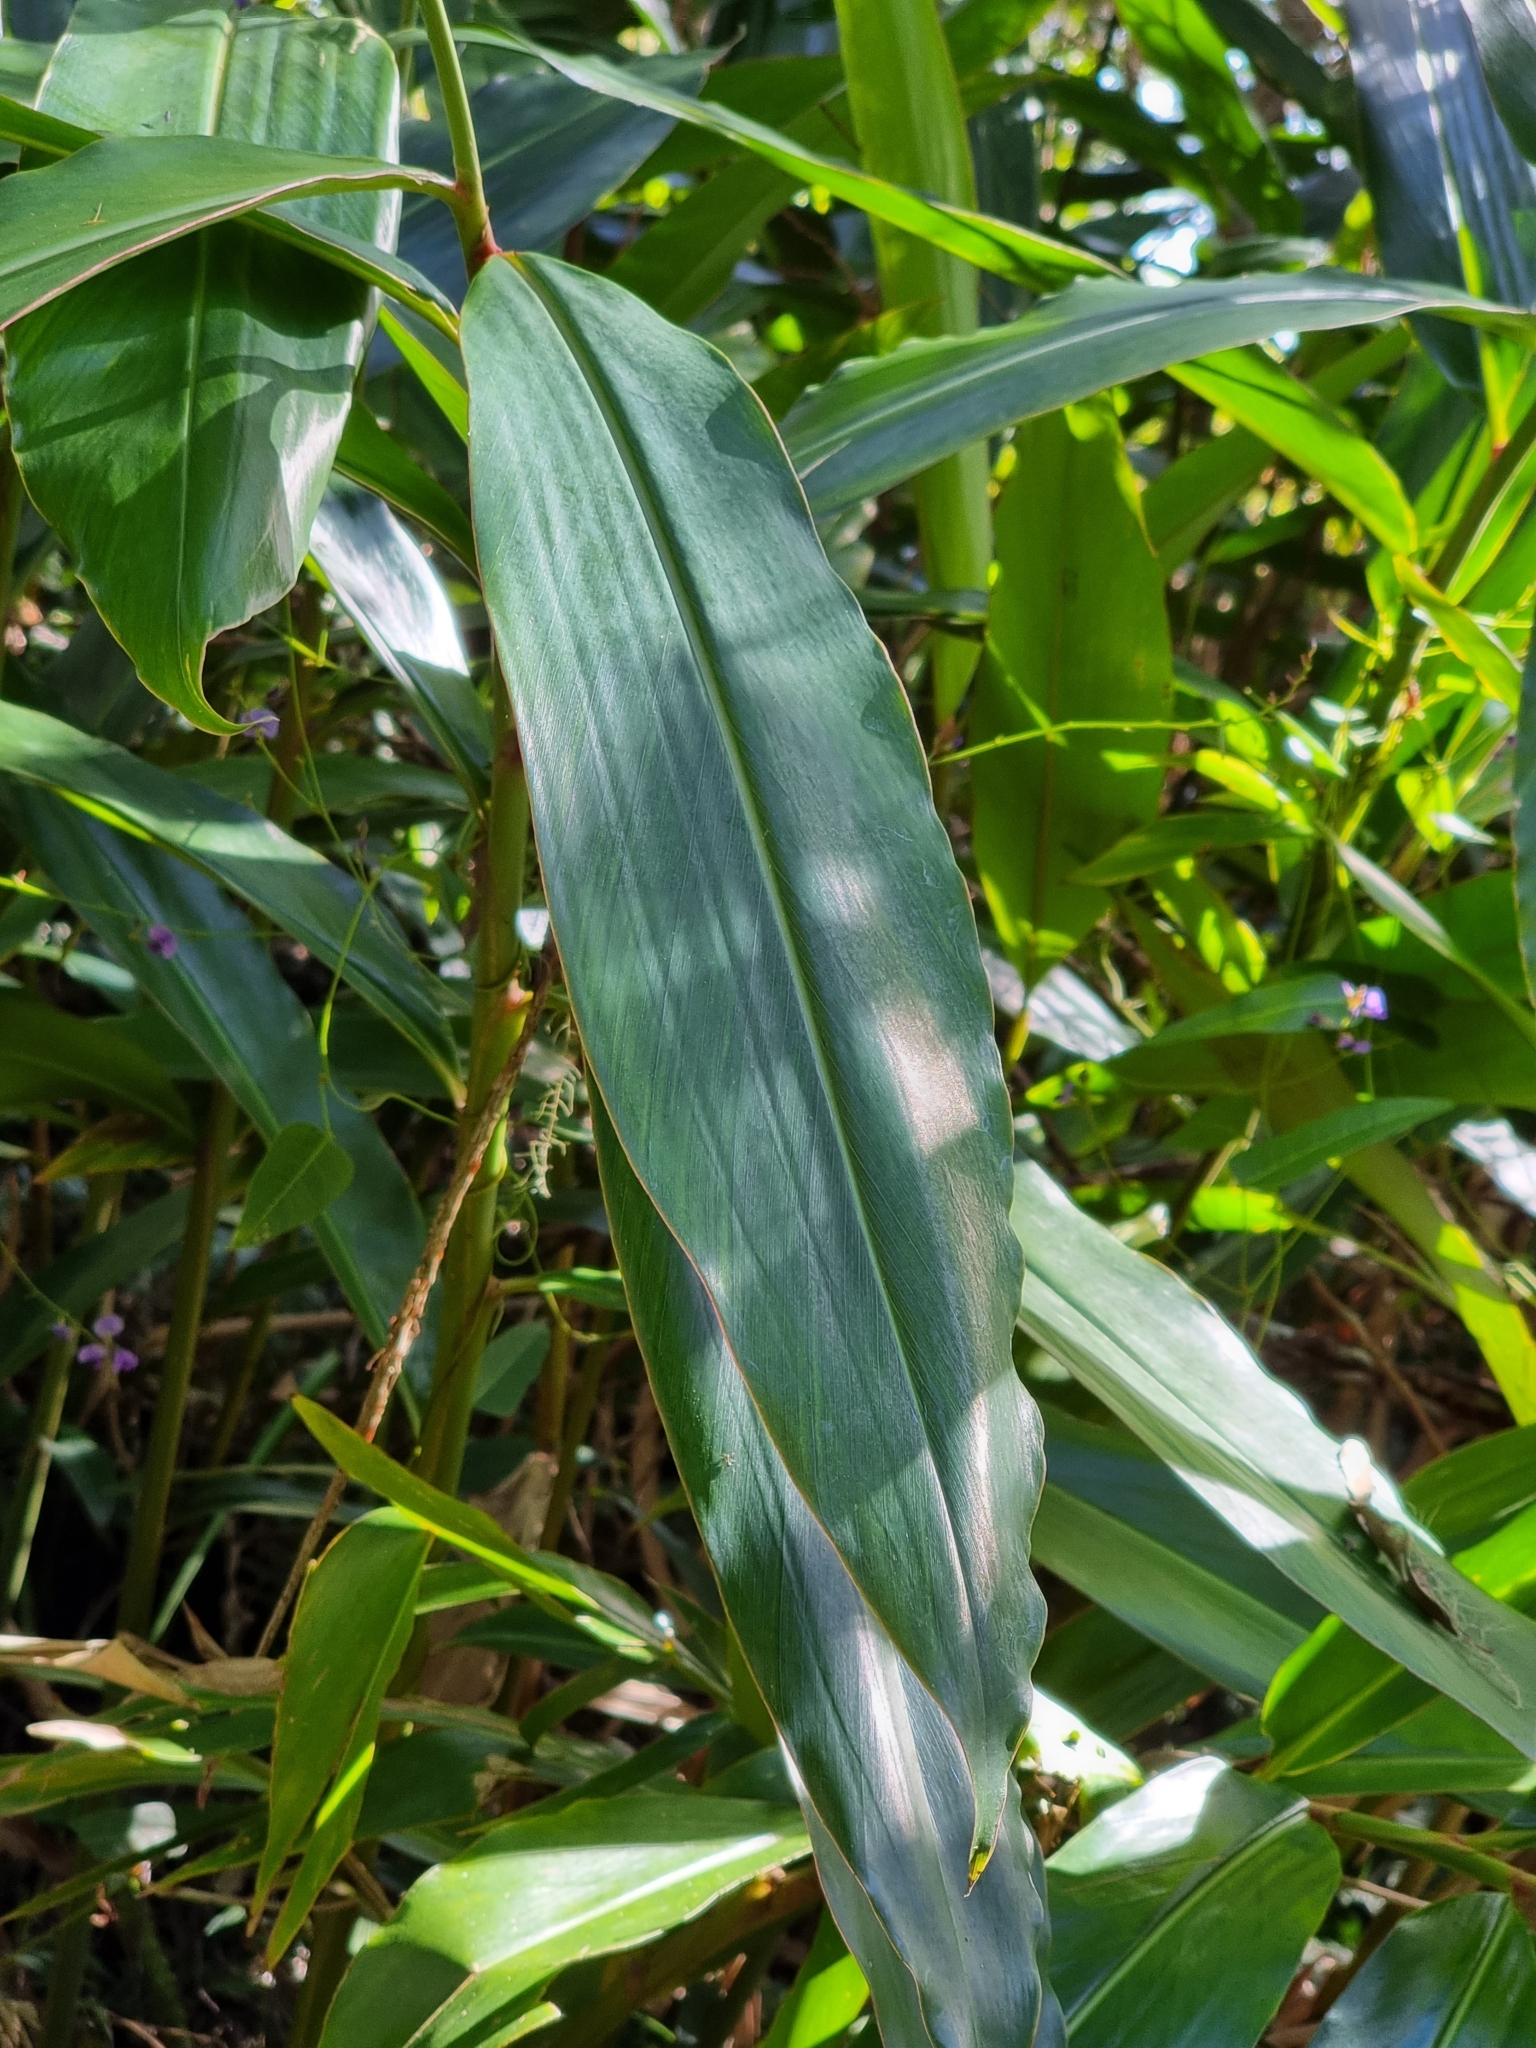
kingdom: Plantae
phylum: Tracheophyta
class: Liliopsida
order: Zingiberales
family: Zingiberaceae
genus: Alpinia
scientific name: Alpinia caerulea
